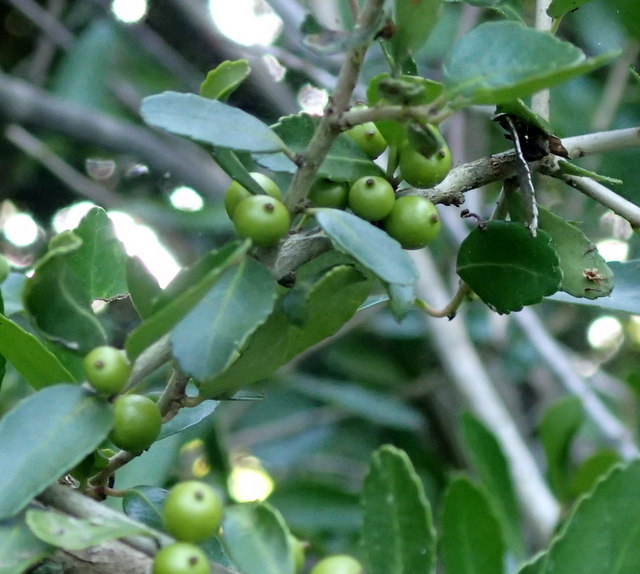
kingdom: Plantae
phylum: Tracheophyta
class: Magnoliopsida
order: Aquifoliales
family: Aquifoliaceae
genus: Ilex
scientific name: Ilex vomitoria
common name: Yaupon holly
